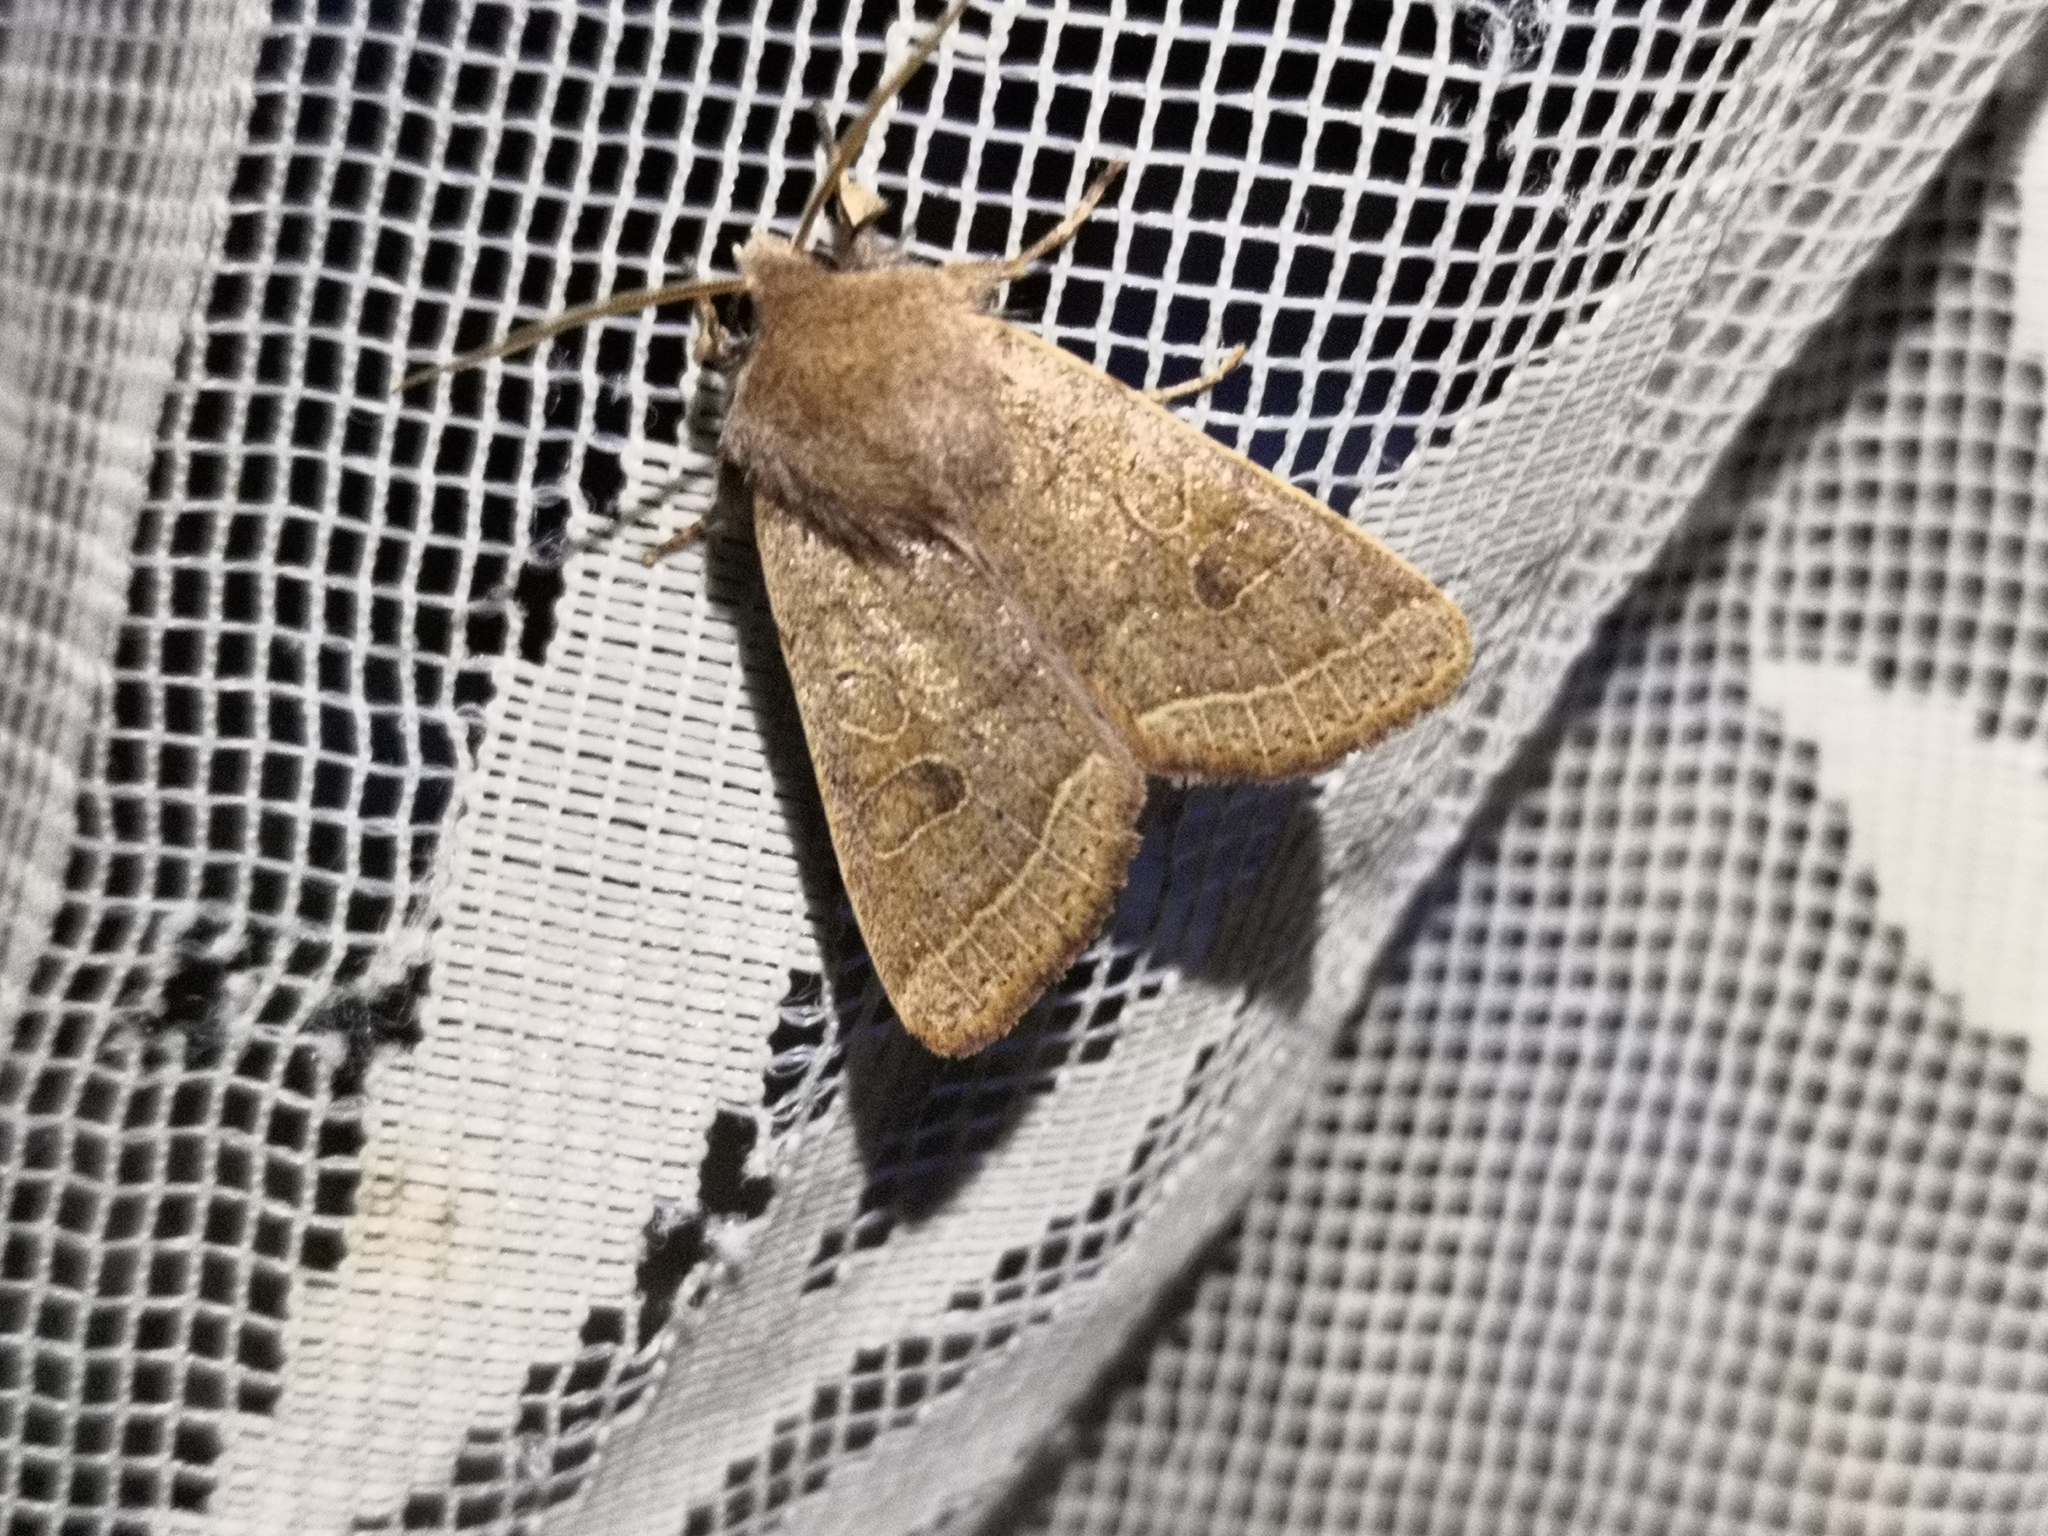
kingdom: Animalia
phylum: Arthropoda
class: Insecta
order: Lepidoptera
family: Noctuidae
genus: Orthosia
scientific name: Orthosia cerasi
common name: Common quaker
